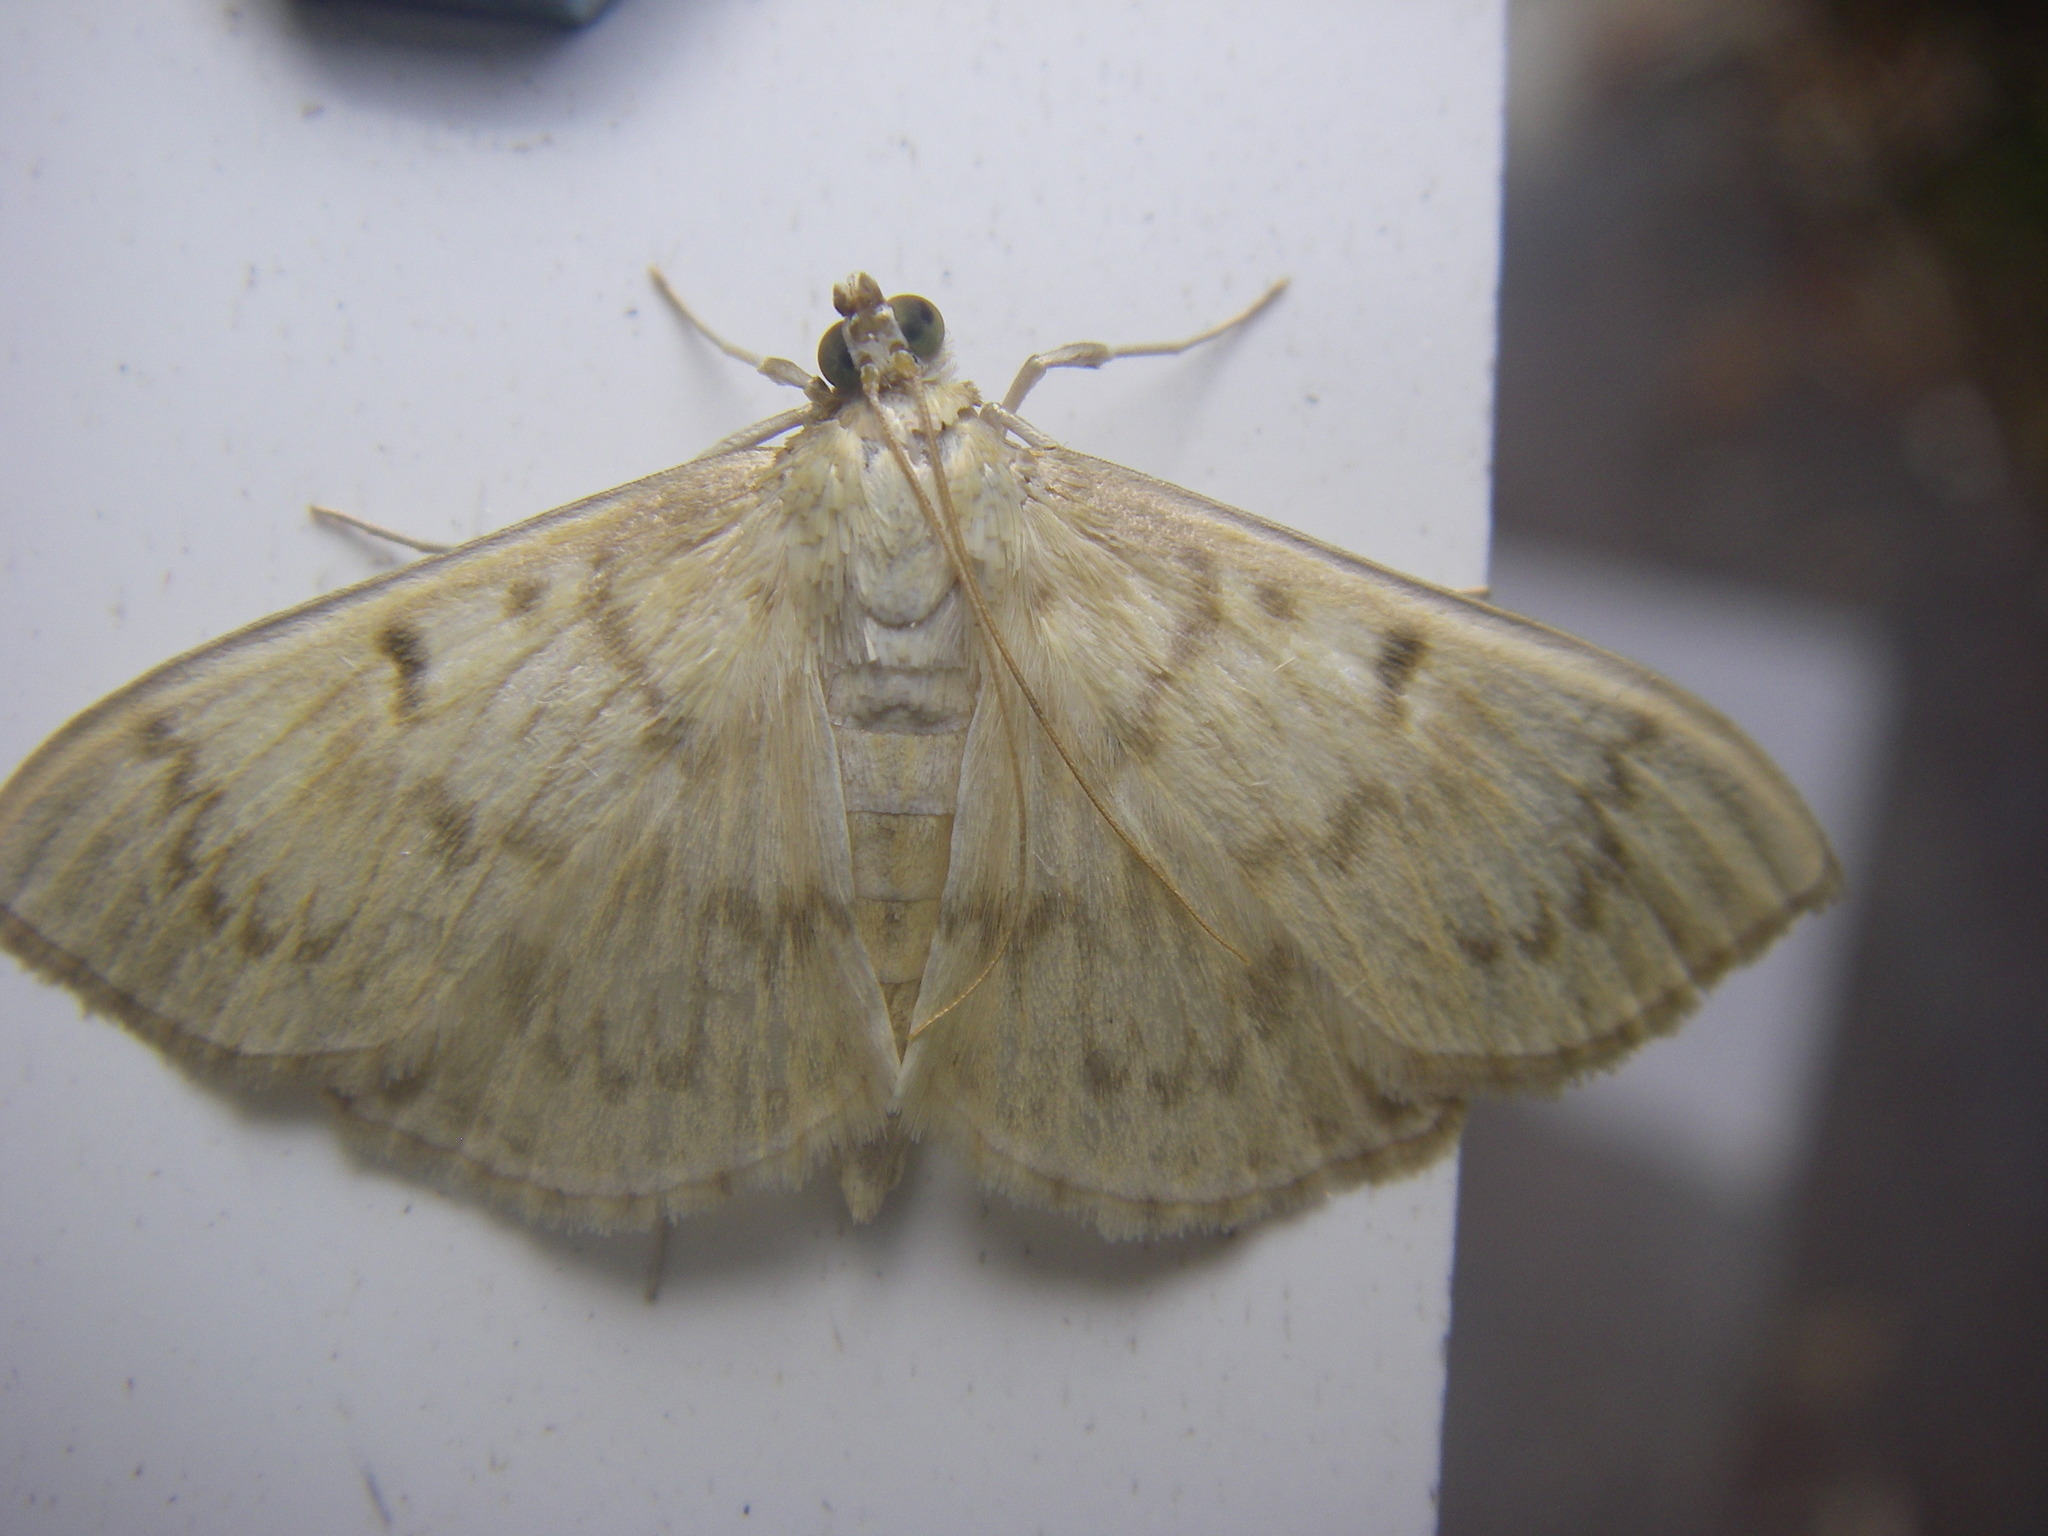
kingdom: Animalia
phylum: Arthropoda
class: Insecta
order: Lepidoptera
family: Crambidae
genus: Patania
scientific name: Patania ruralis
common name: Mother of pearl
